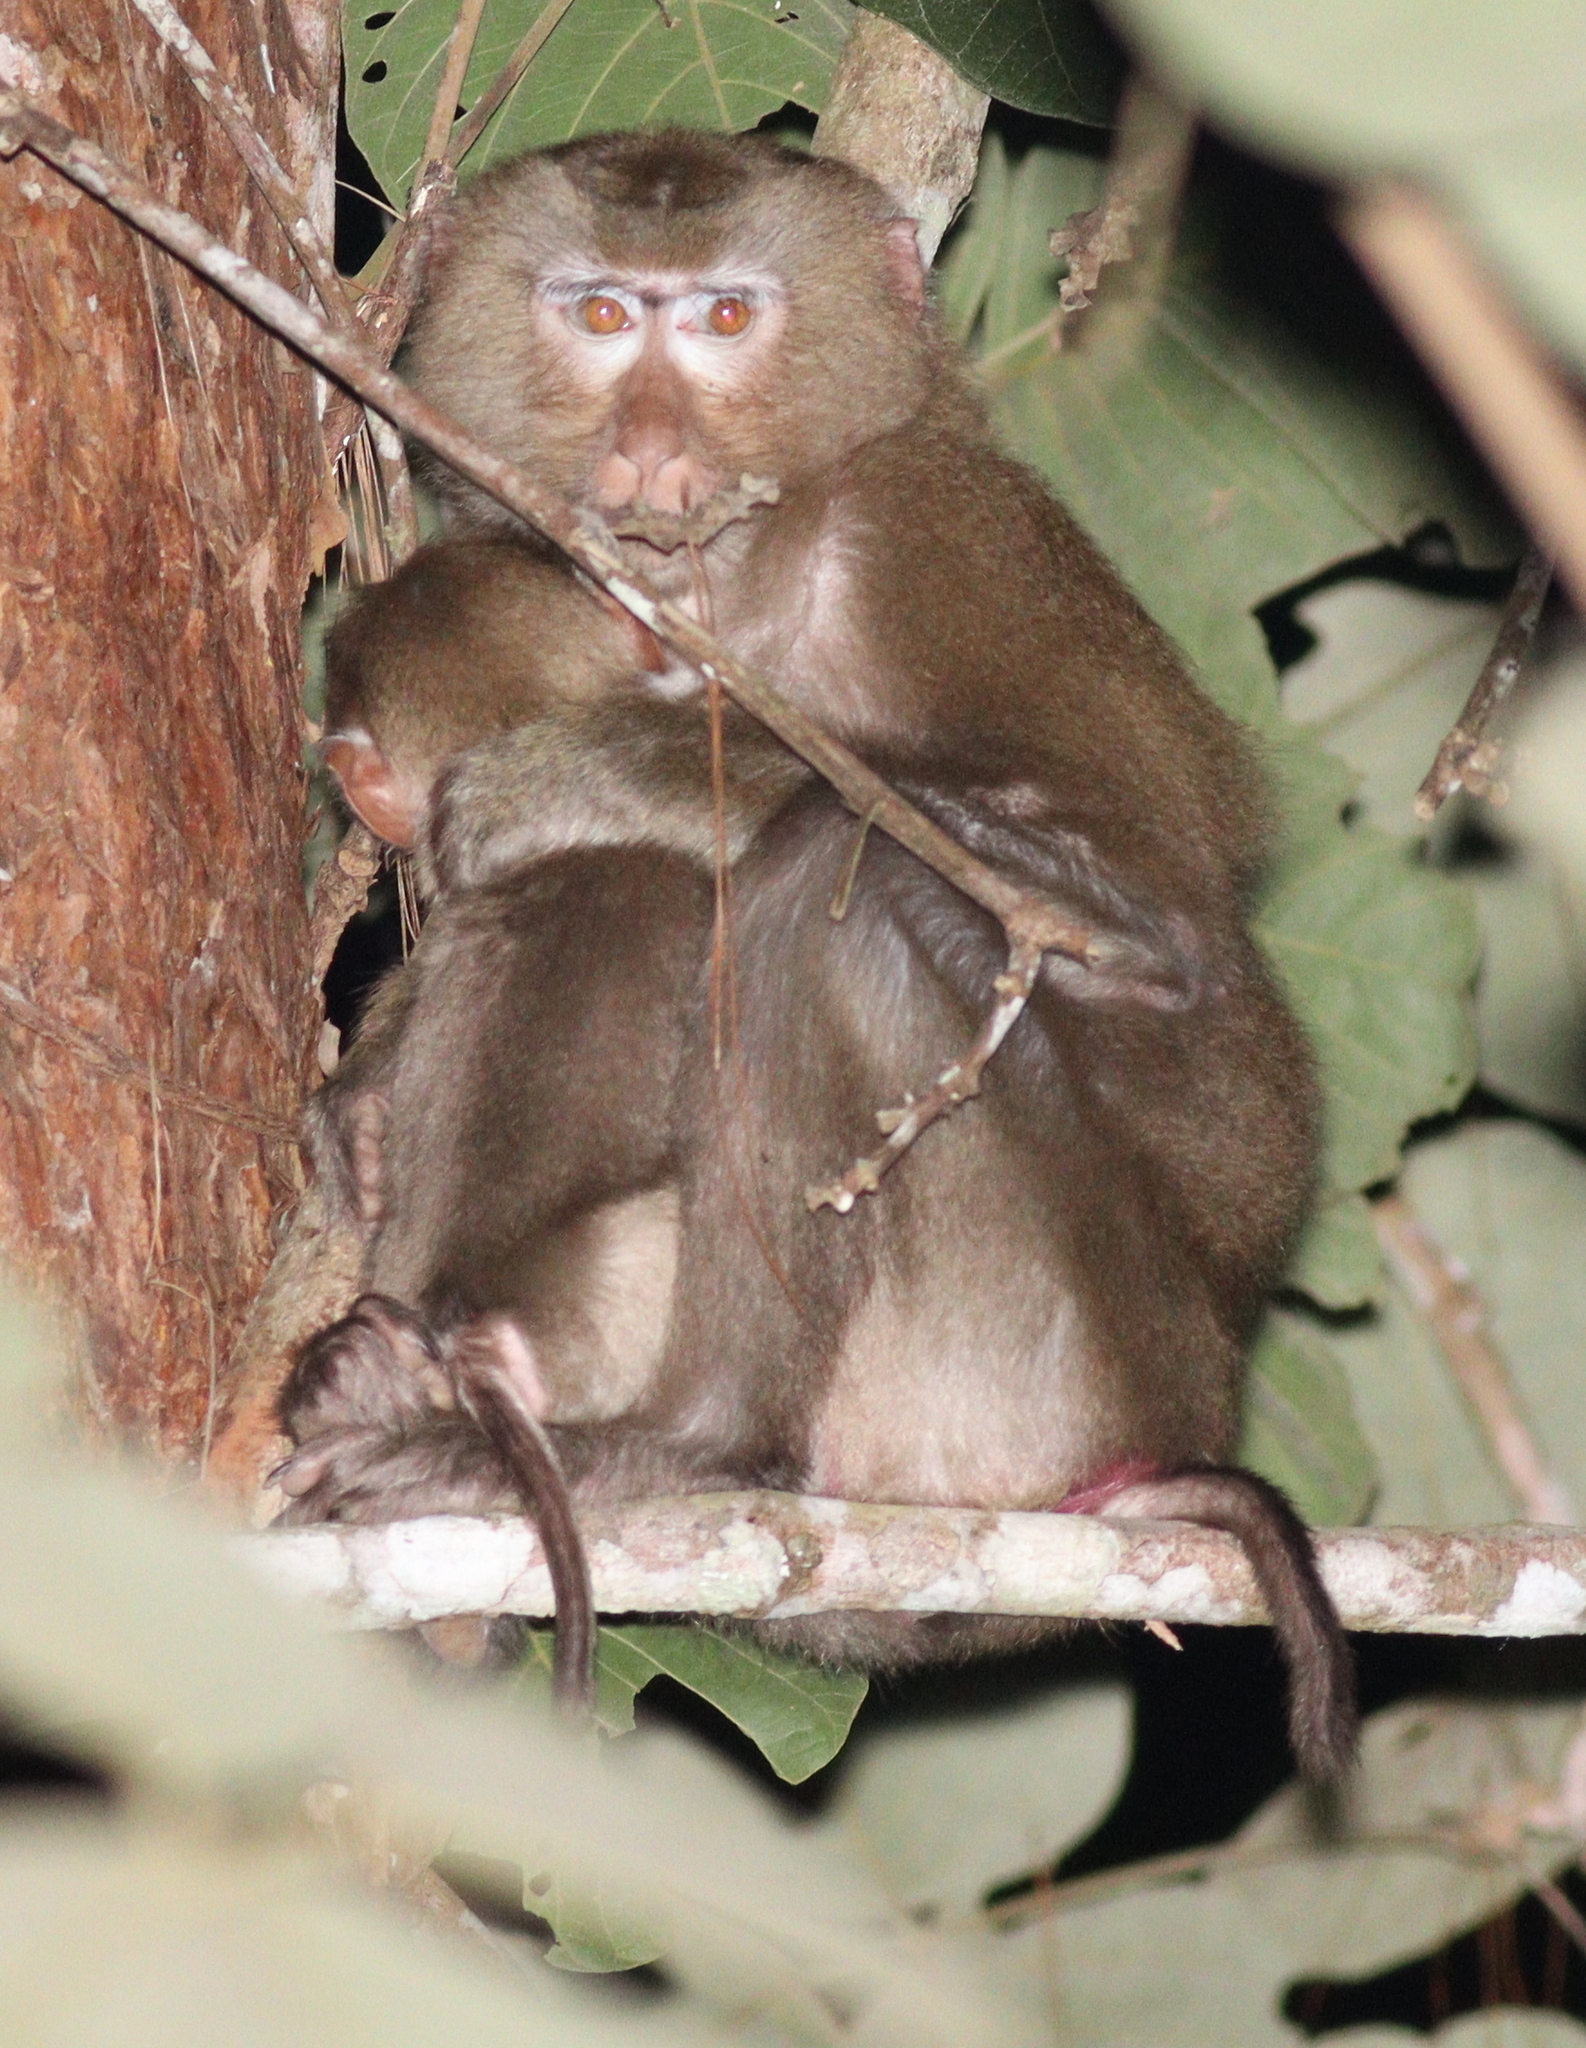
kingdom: Animalia
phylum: Chordata
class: Mammalia
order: Primates
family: Cercopithecidae
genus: Macaca
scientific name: Macaca leonina
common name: Northern pig-tailed macaque
